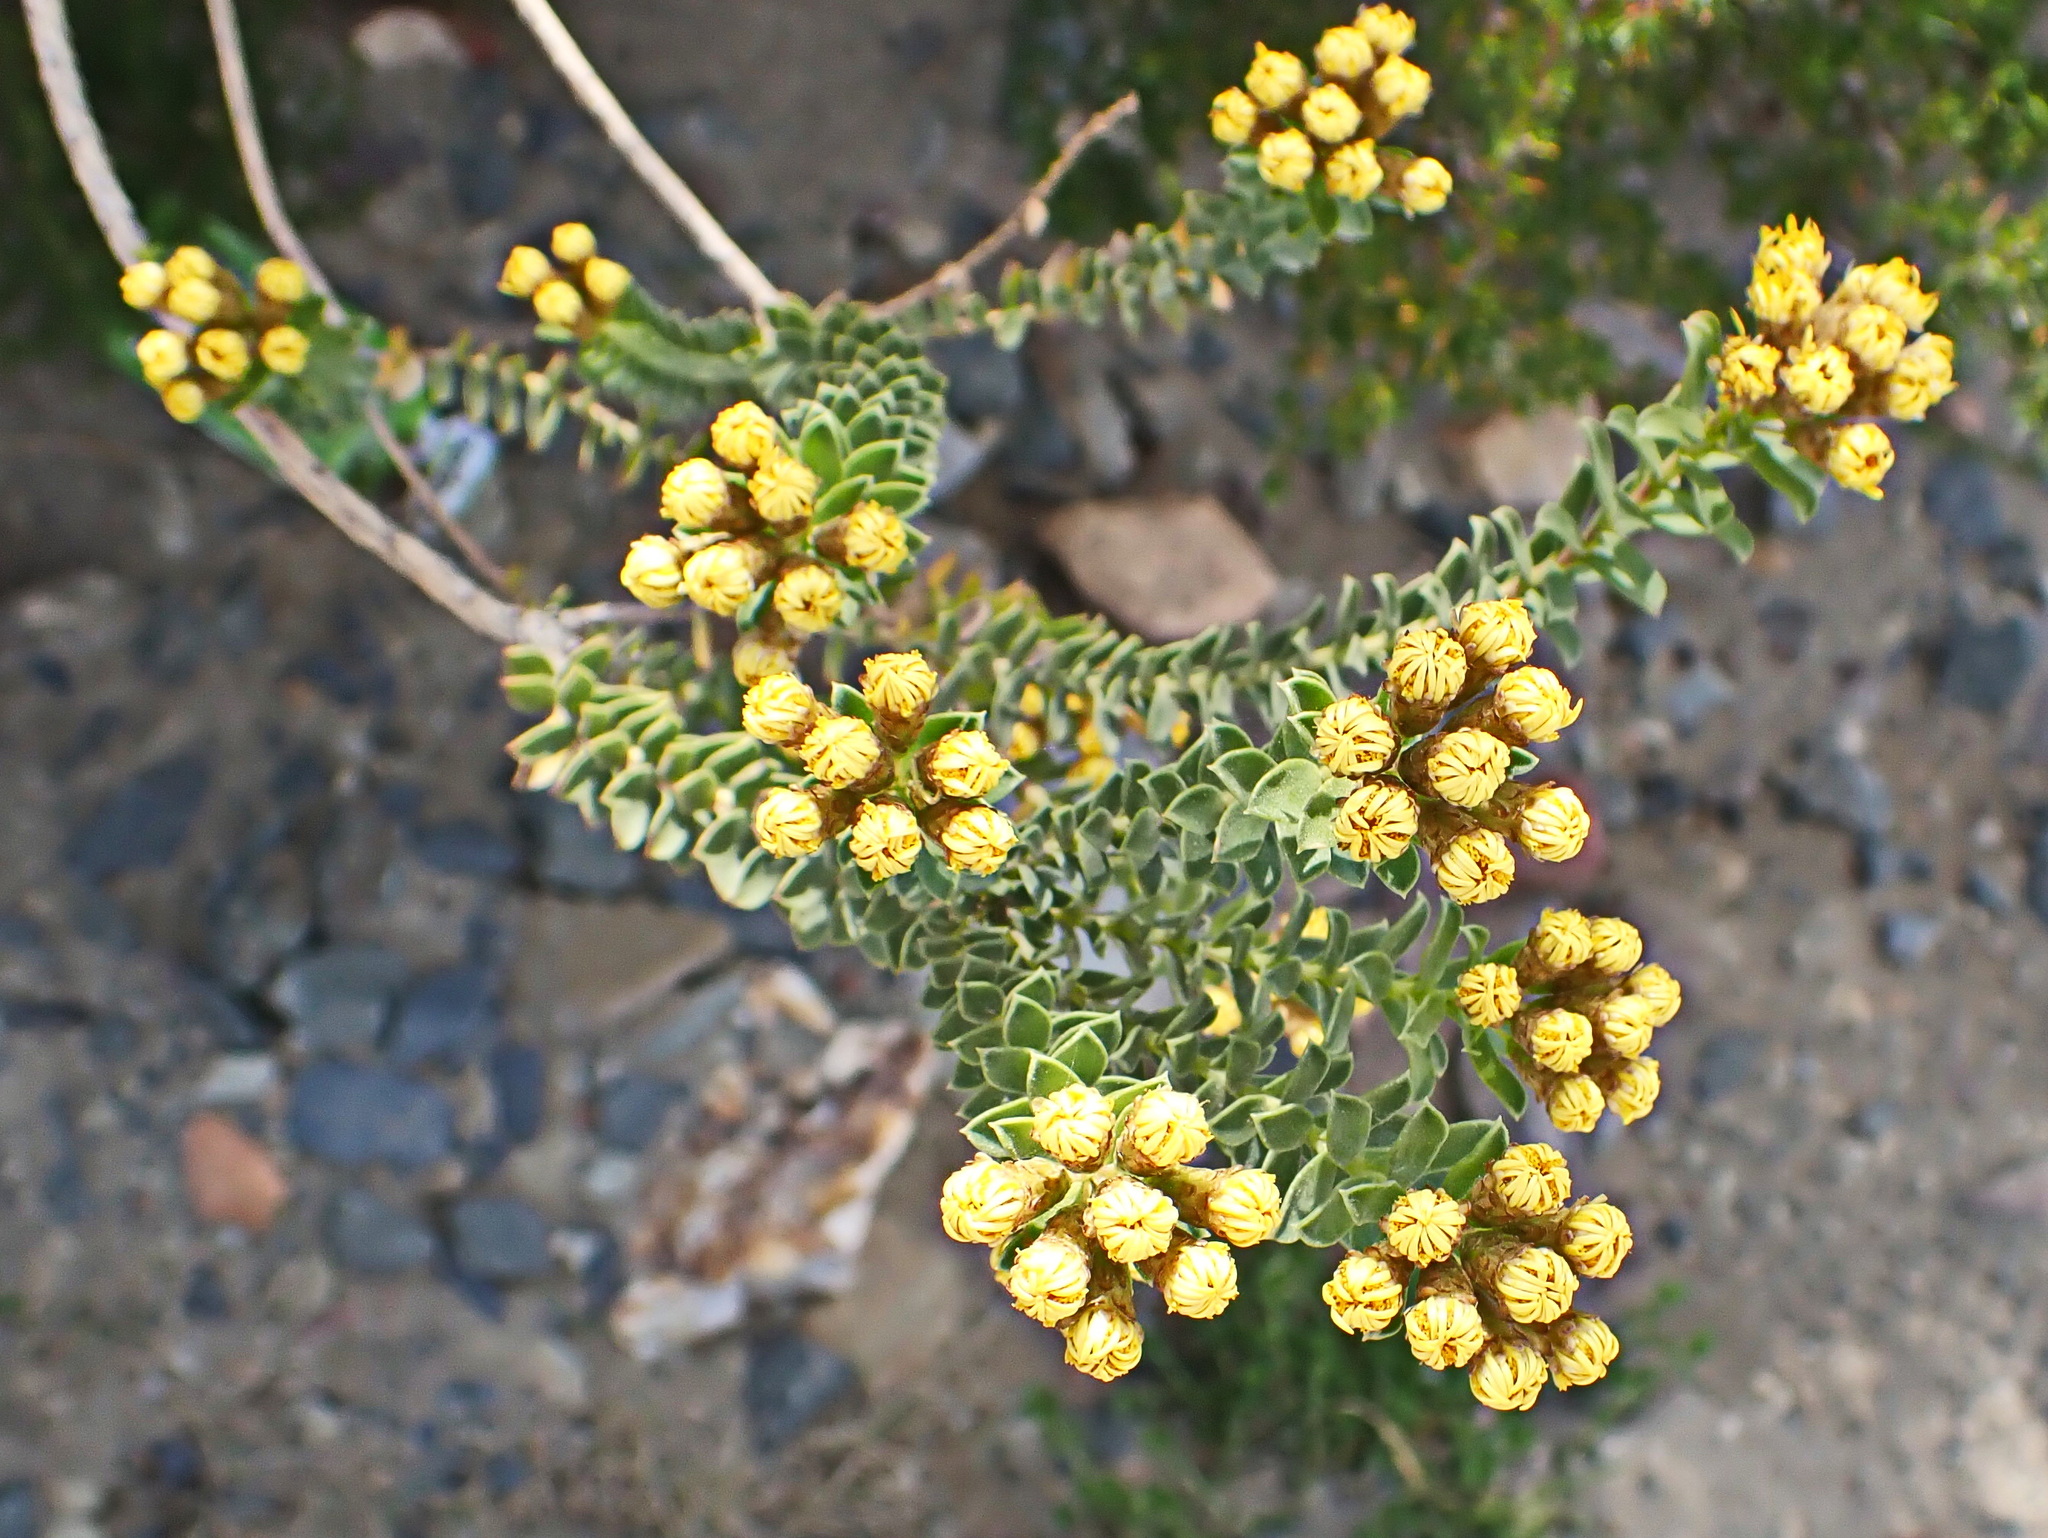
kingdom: Plantae
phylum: Tracheophyta
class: Magnoliopsida
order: Asterales
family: Asteraceae
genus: Oedera
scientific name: Oedera squarrosa
